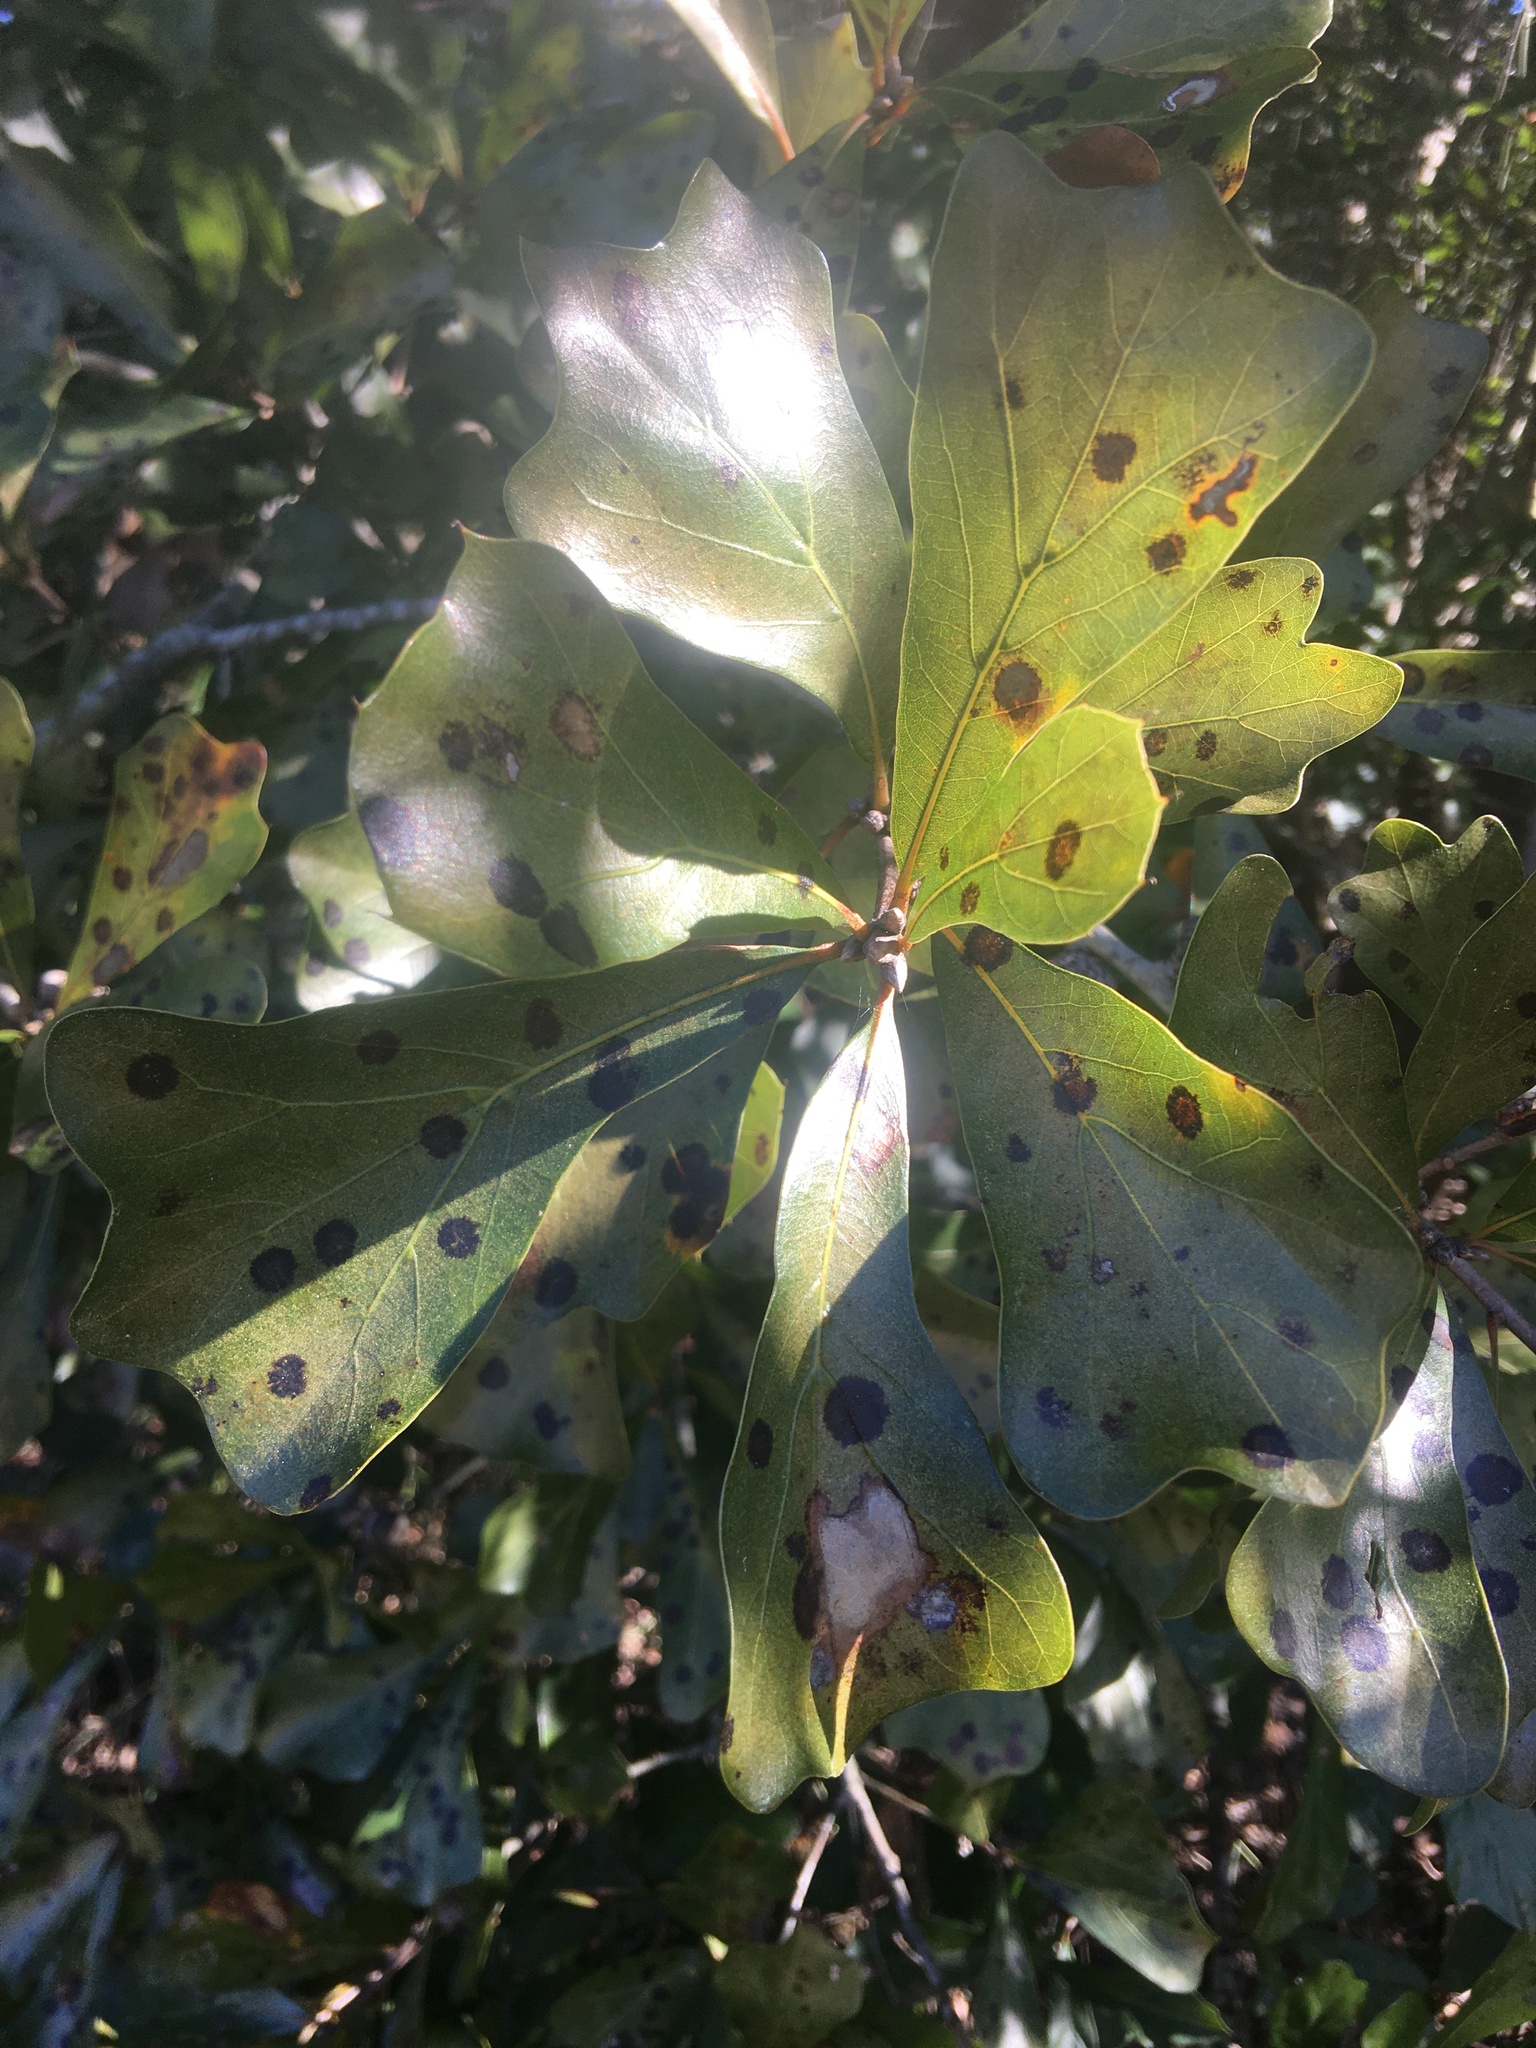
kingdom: Plantae
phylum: Tracheophyta
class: Magnoliopsida
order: Fagales
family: Fagaceae
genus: Quercus
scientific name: Quercus nigra
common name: Water oak
